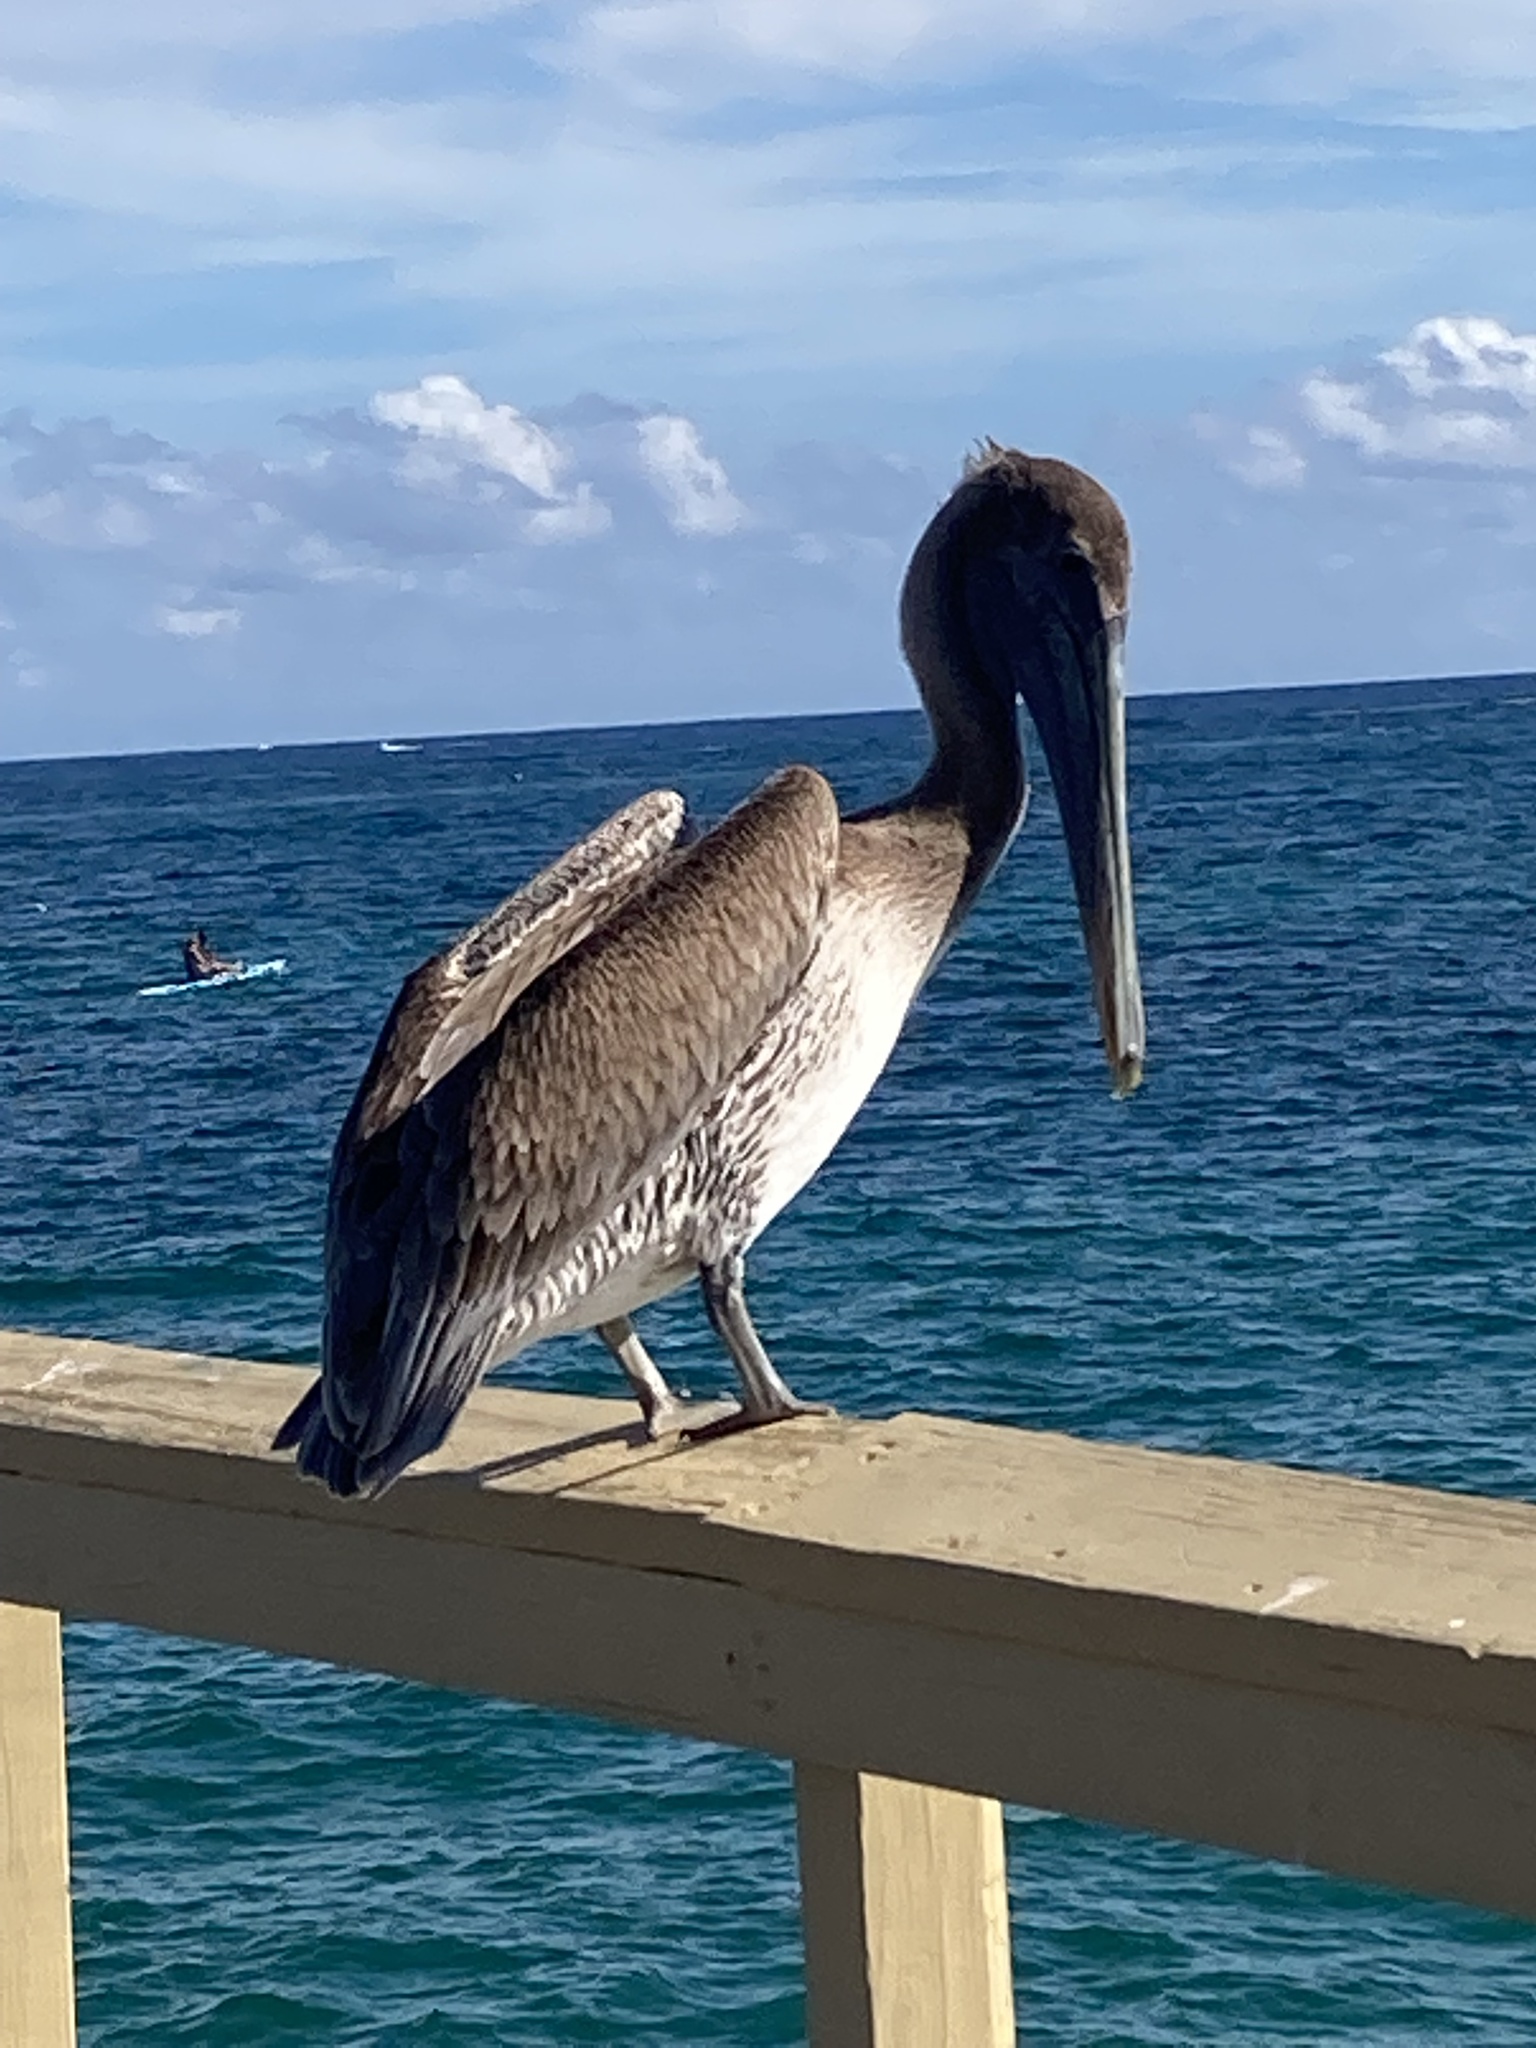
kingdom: Animalia
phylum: Chordata
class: Aves
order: Pelecaniformes
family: Pelecanidae
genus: Pelecanus
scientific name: Pelecanus occidentalis
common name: Brown pelican
